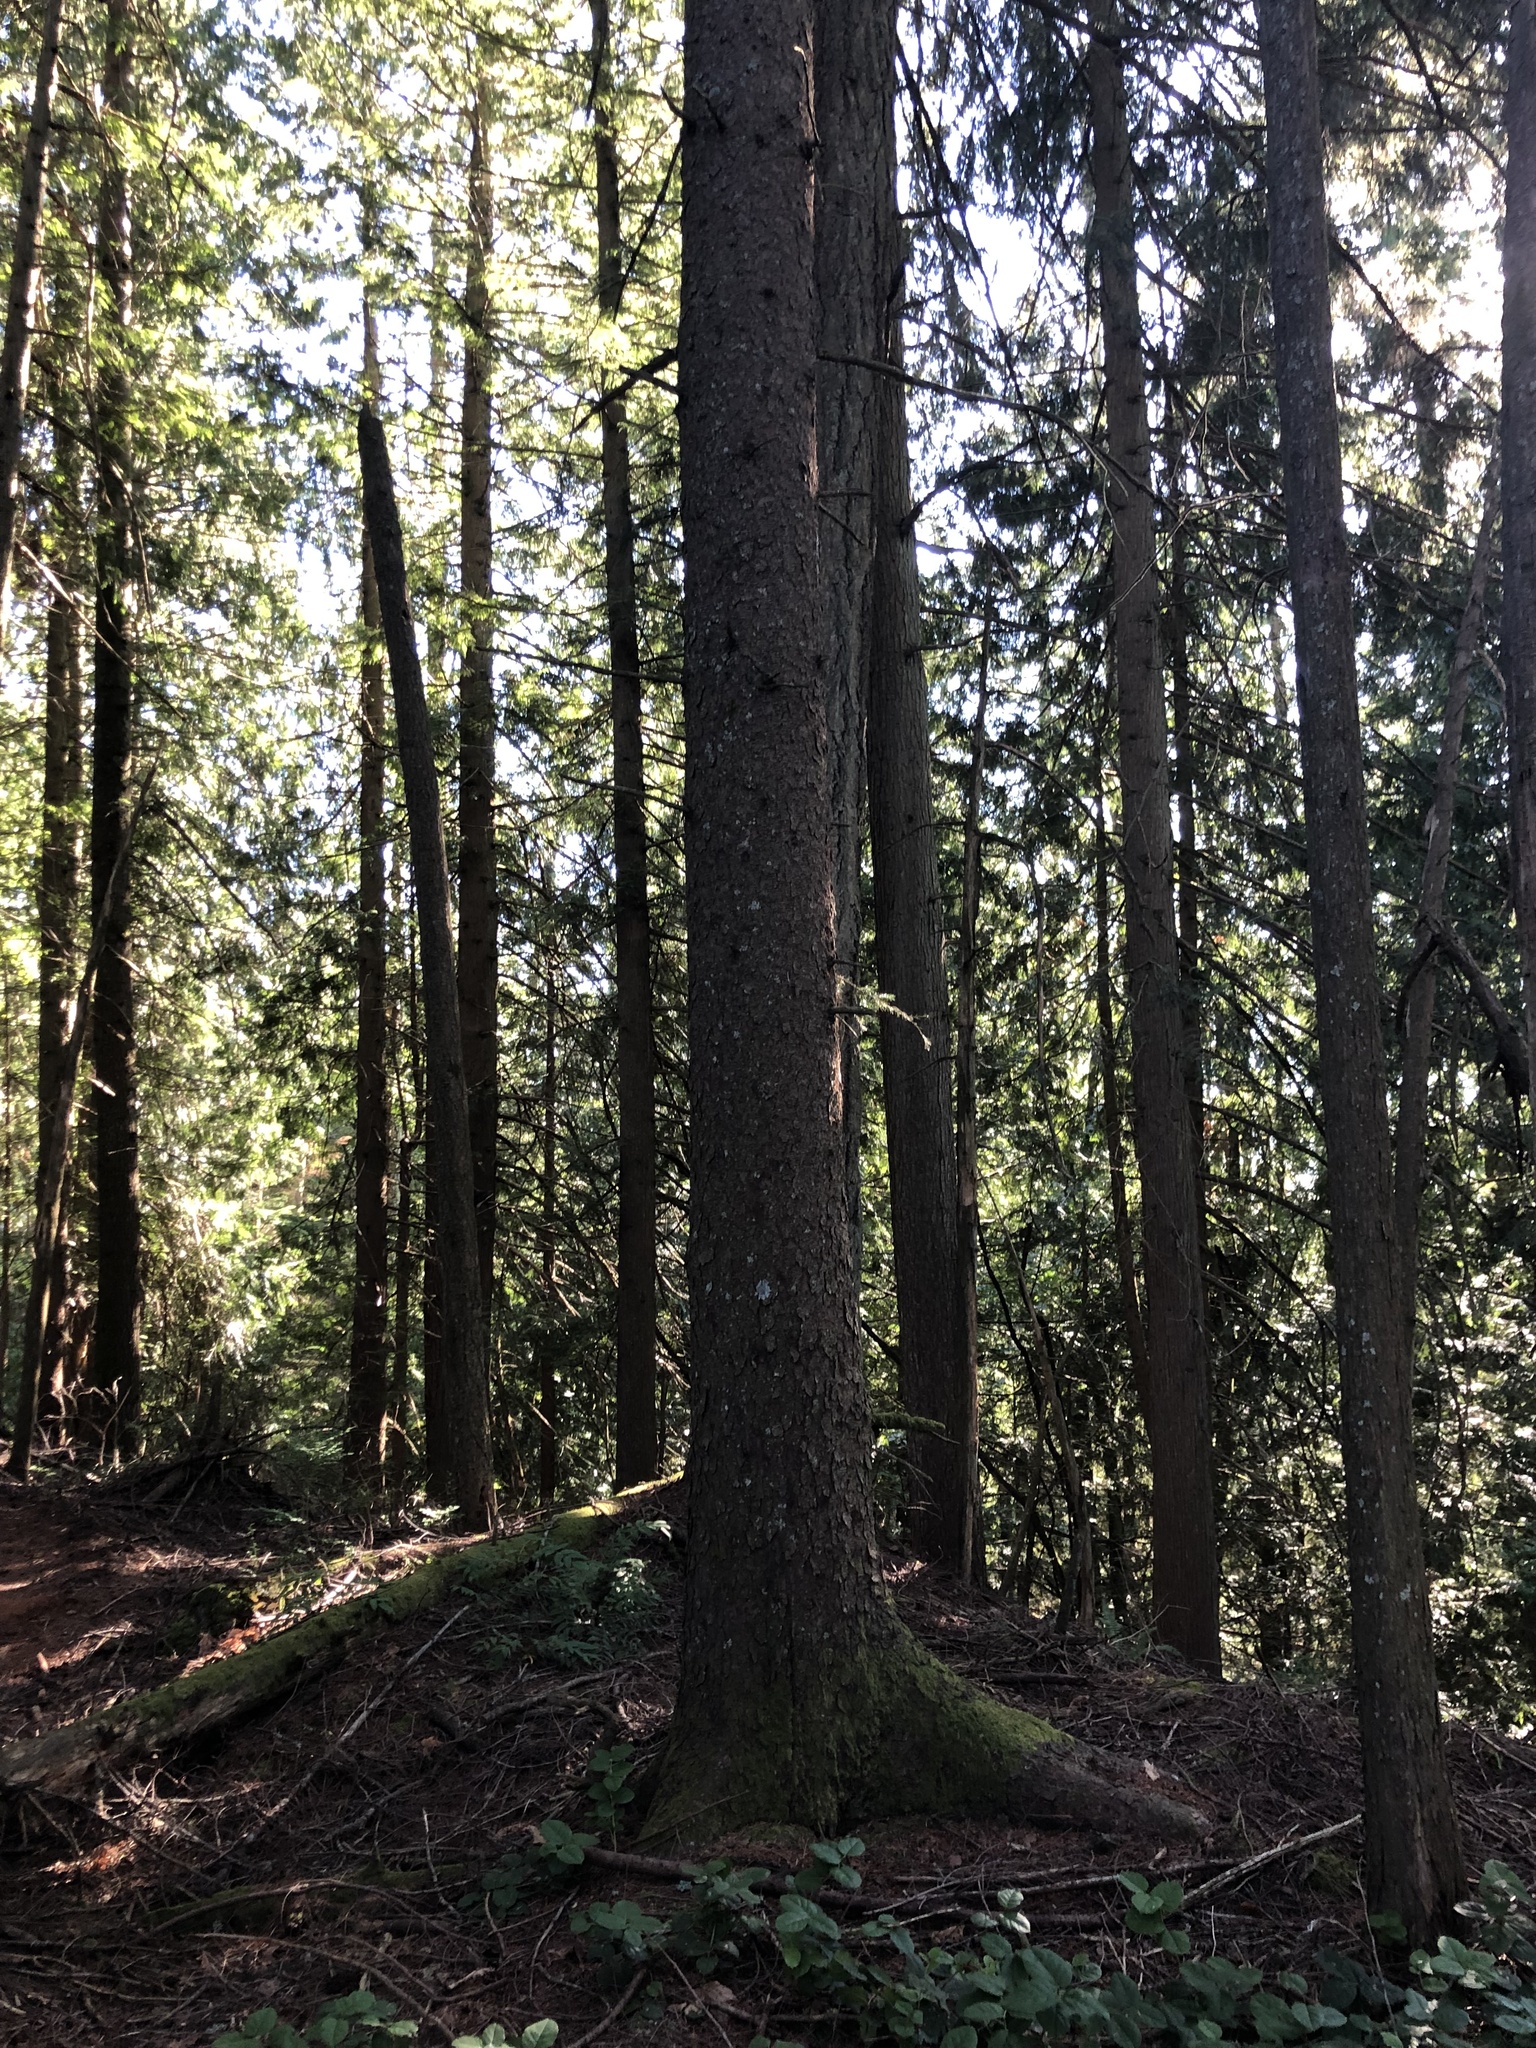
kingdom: Plantae
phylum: Tracheophyta
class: Pinopsida
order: Pinales
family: Pinaceae
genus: Picea
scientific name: Picea sitchensis
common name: Sitka spruce
